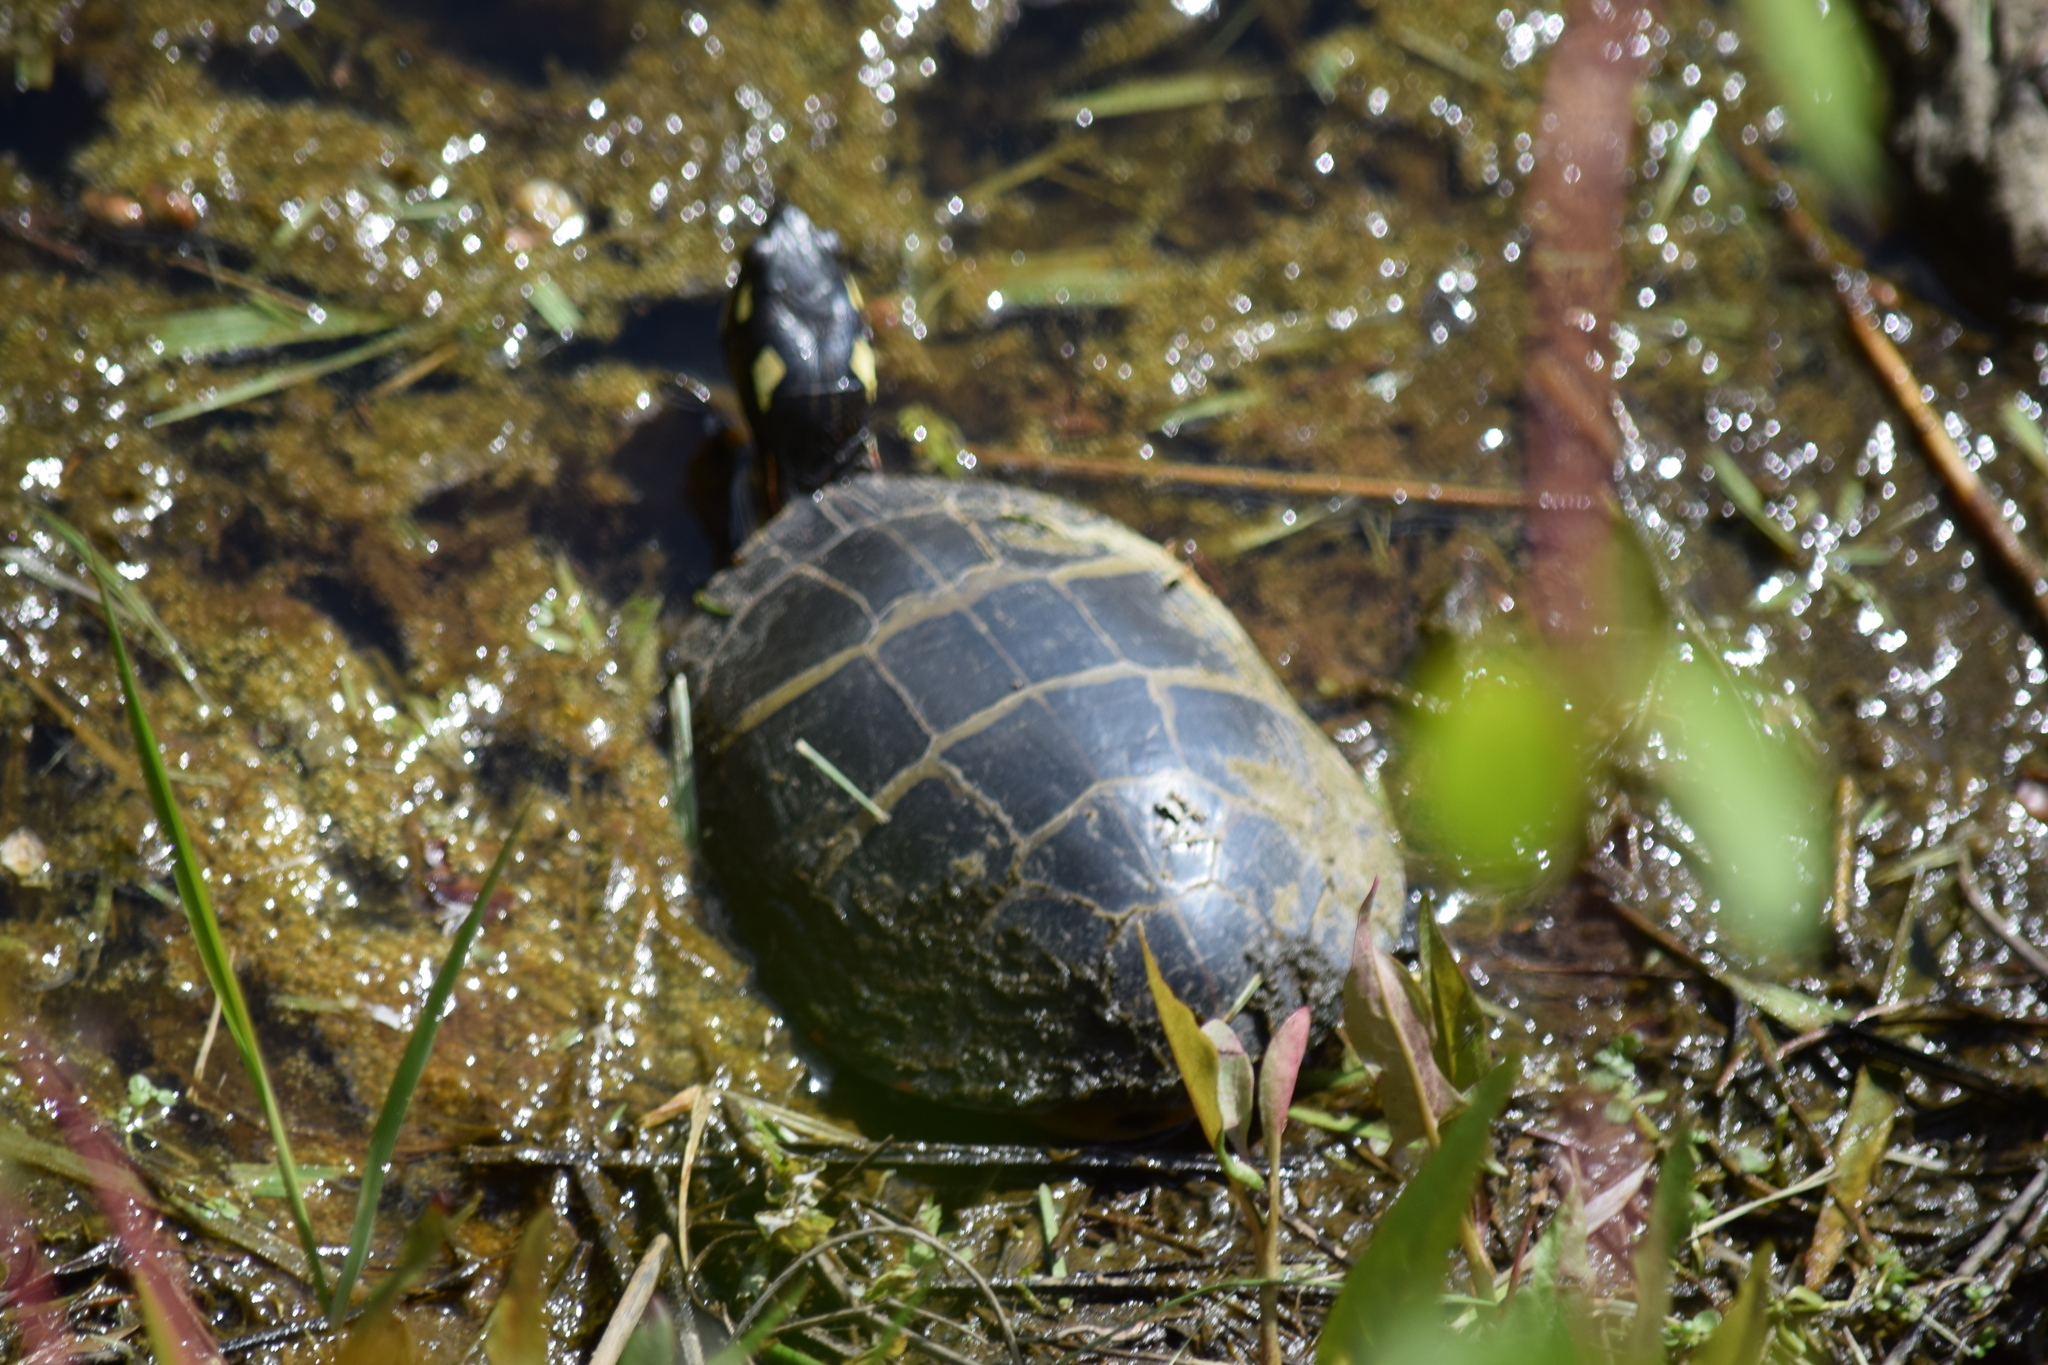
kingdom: Animalia
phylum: Chordata
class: Testudines
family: Emydidae
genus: Chrysemys
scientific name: Chrysemys picta
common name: Painted turtle
